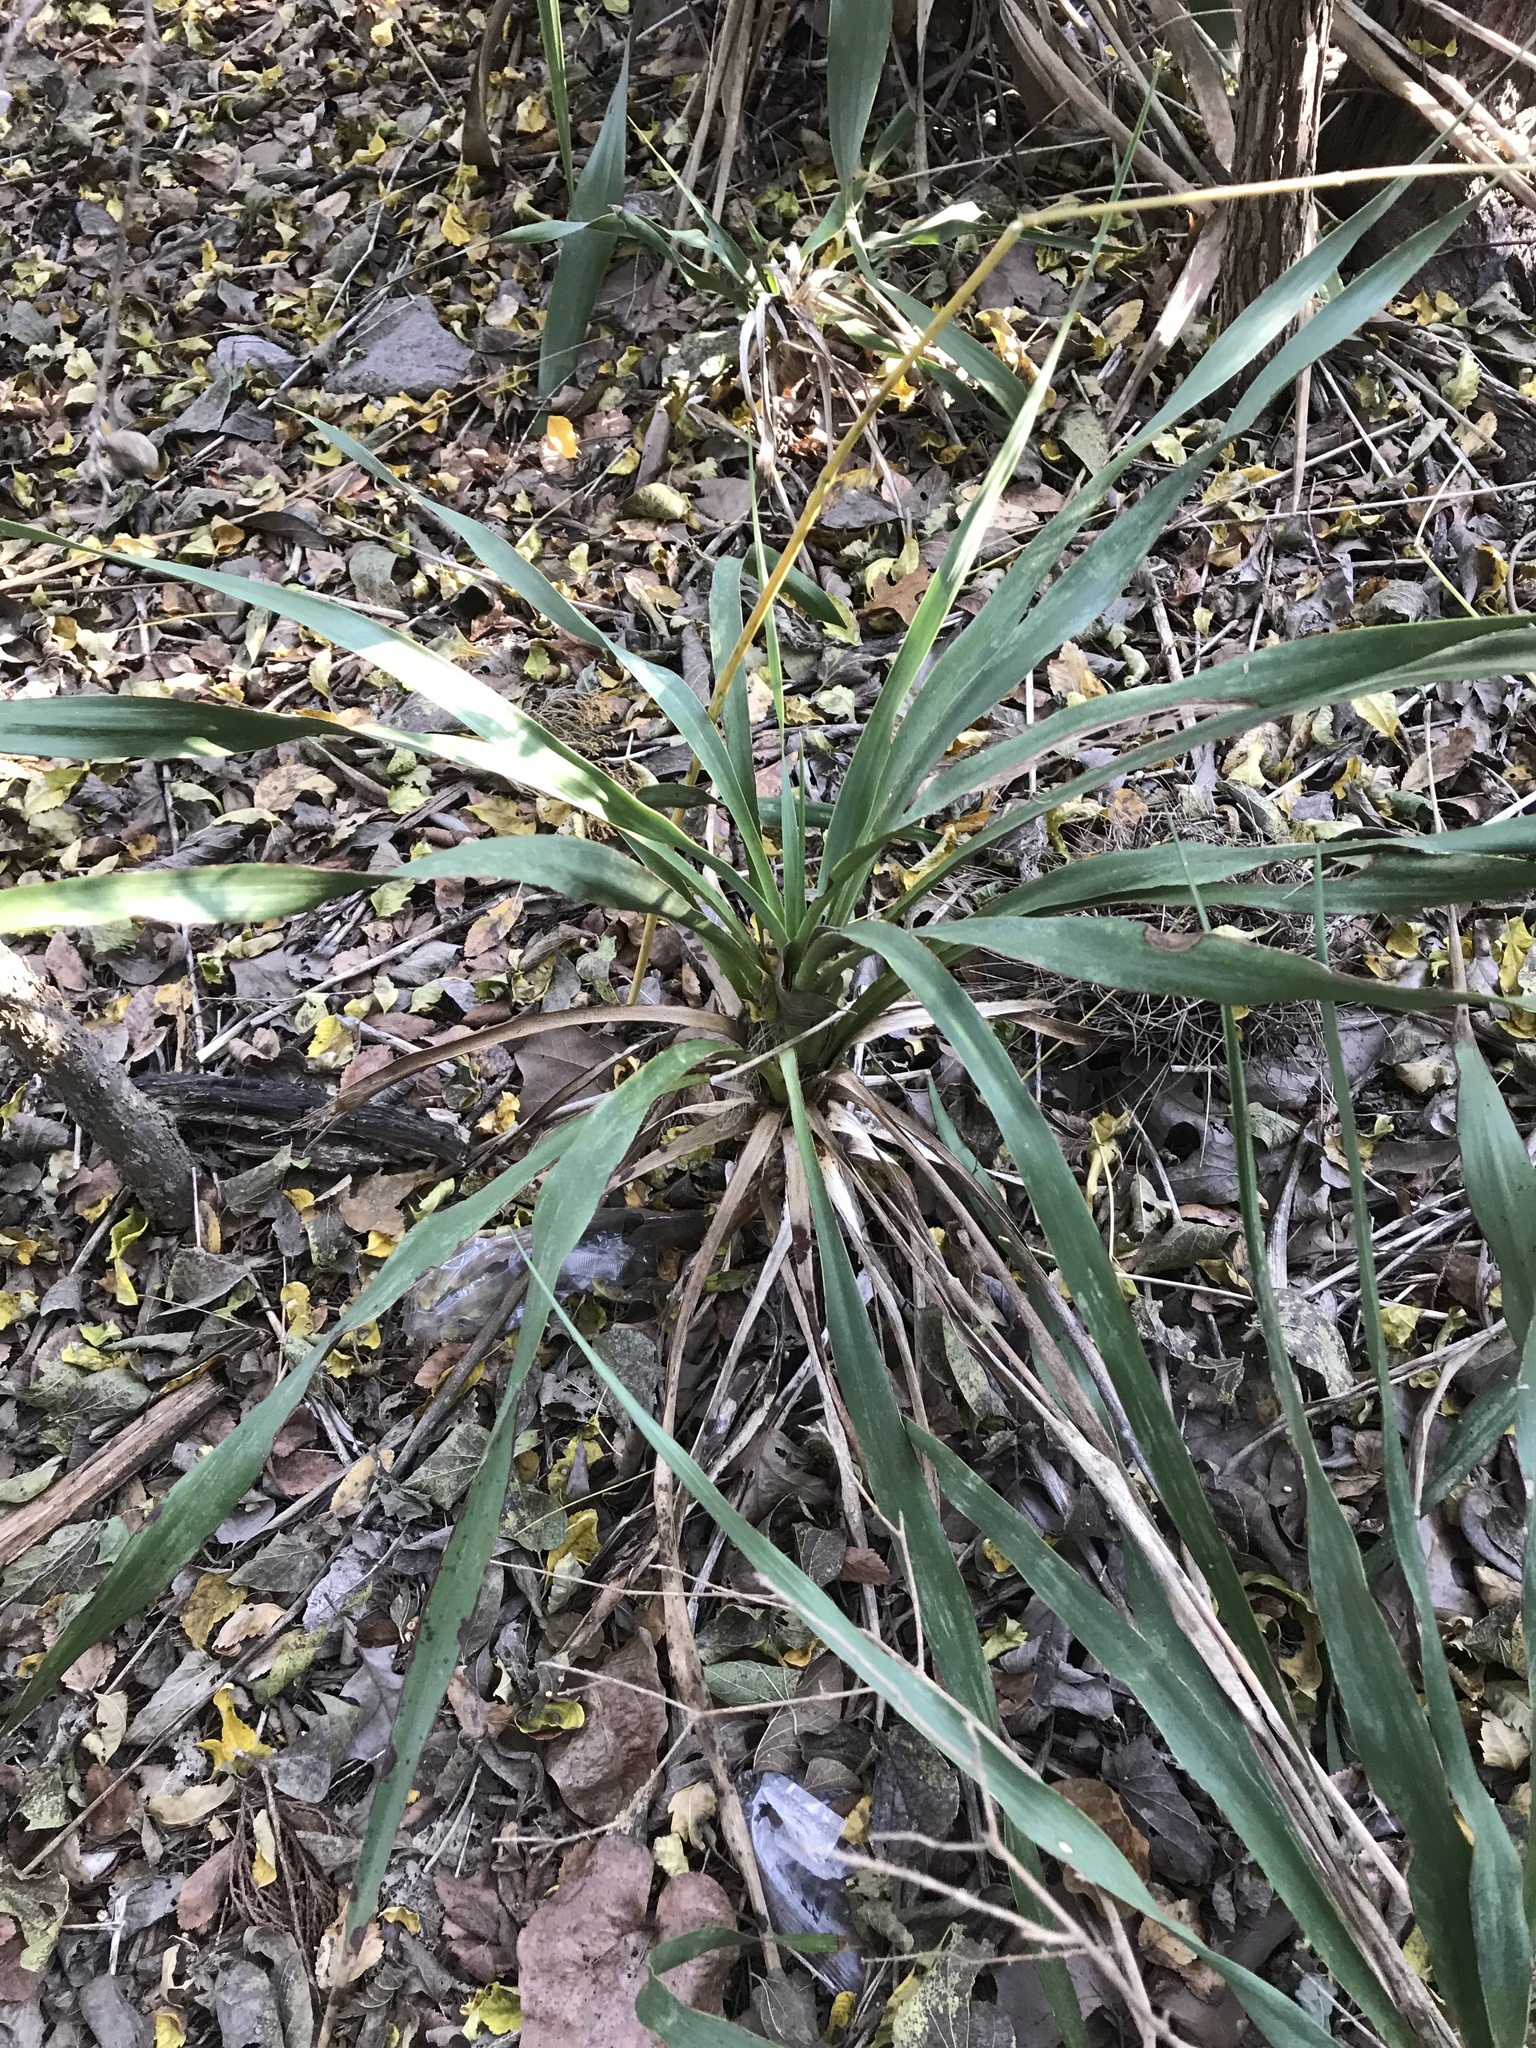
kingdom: Plantae
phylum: Tracheophyta
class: Liliopsida
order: Asparagales
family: Asparagaceae
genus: Yucca
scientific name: Yucca rupicola
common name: Twisted-leaf spanish-dagger
